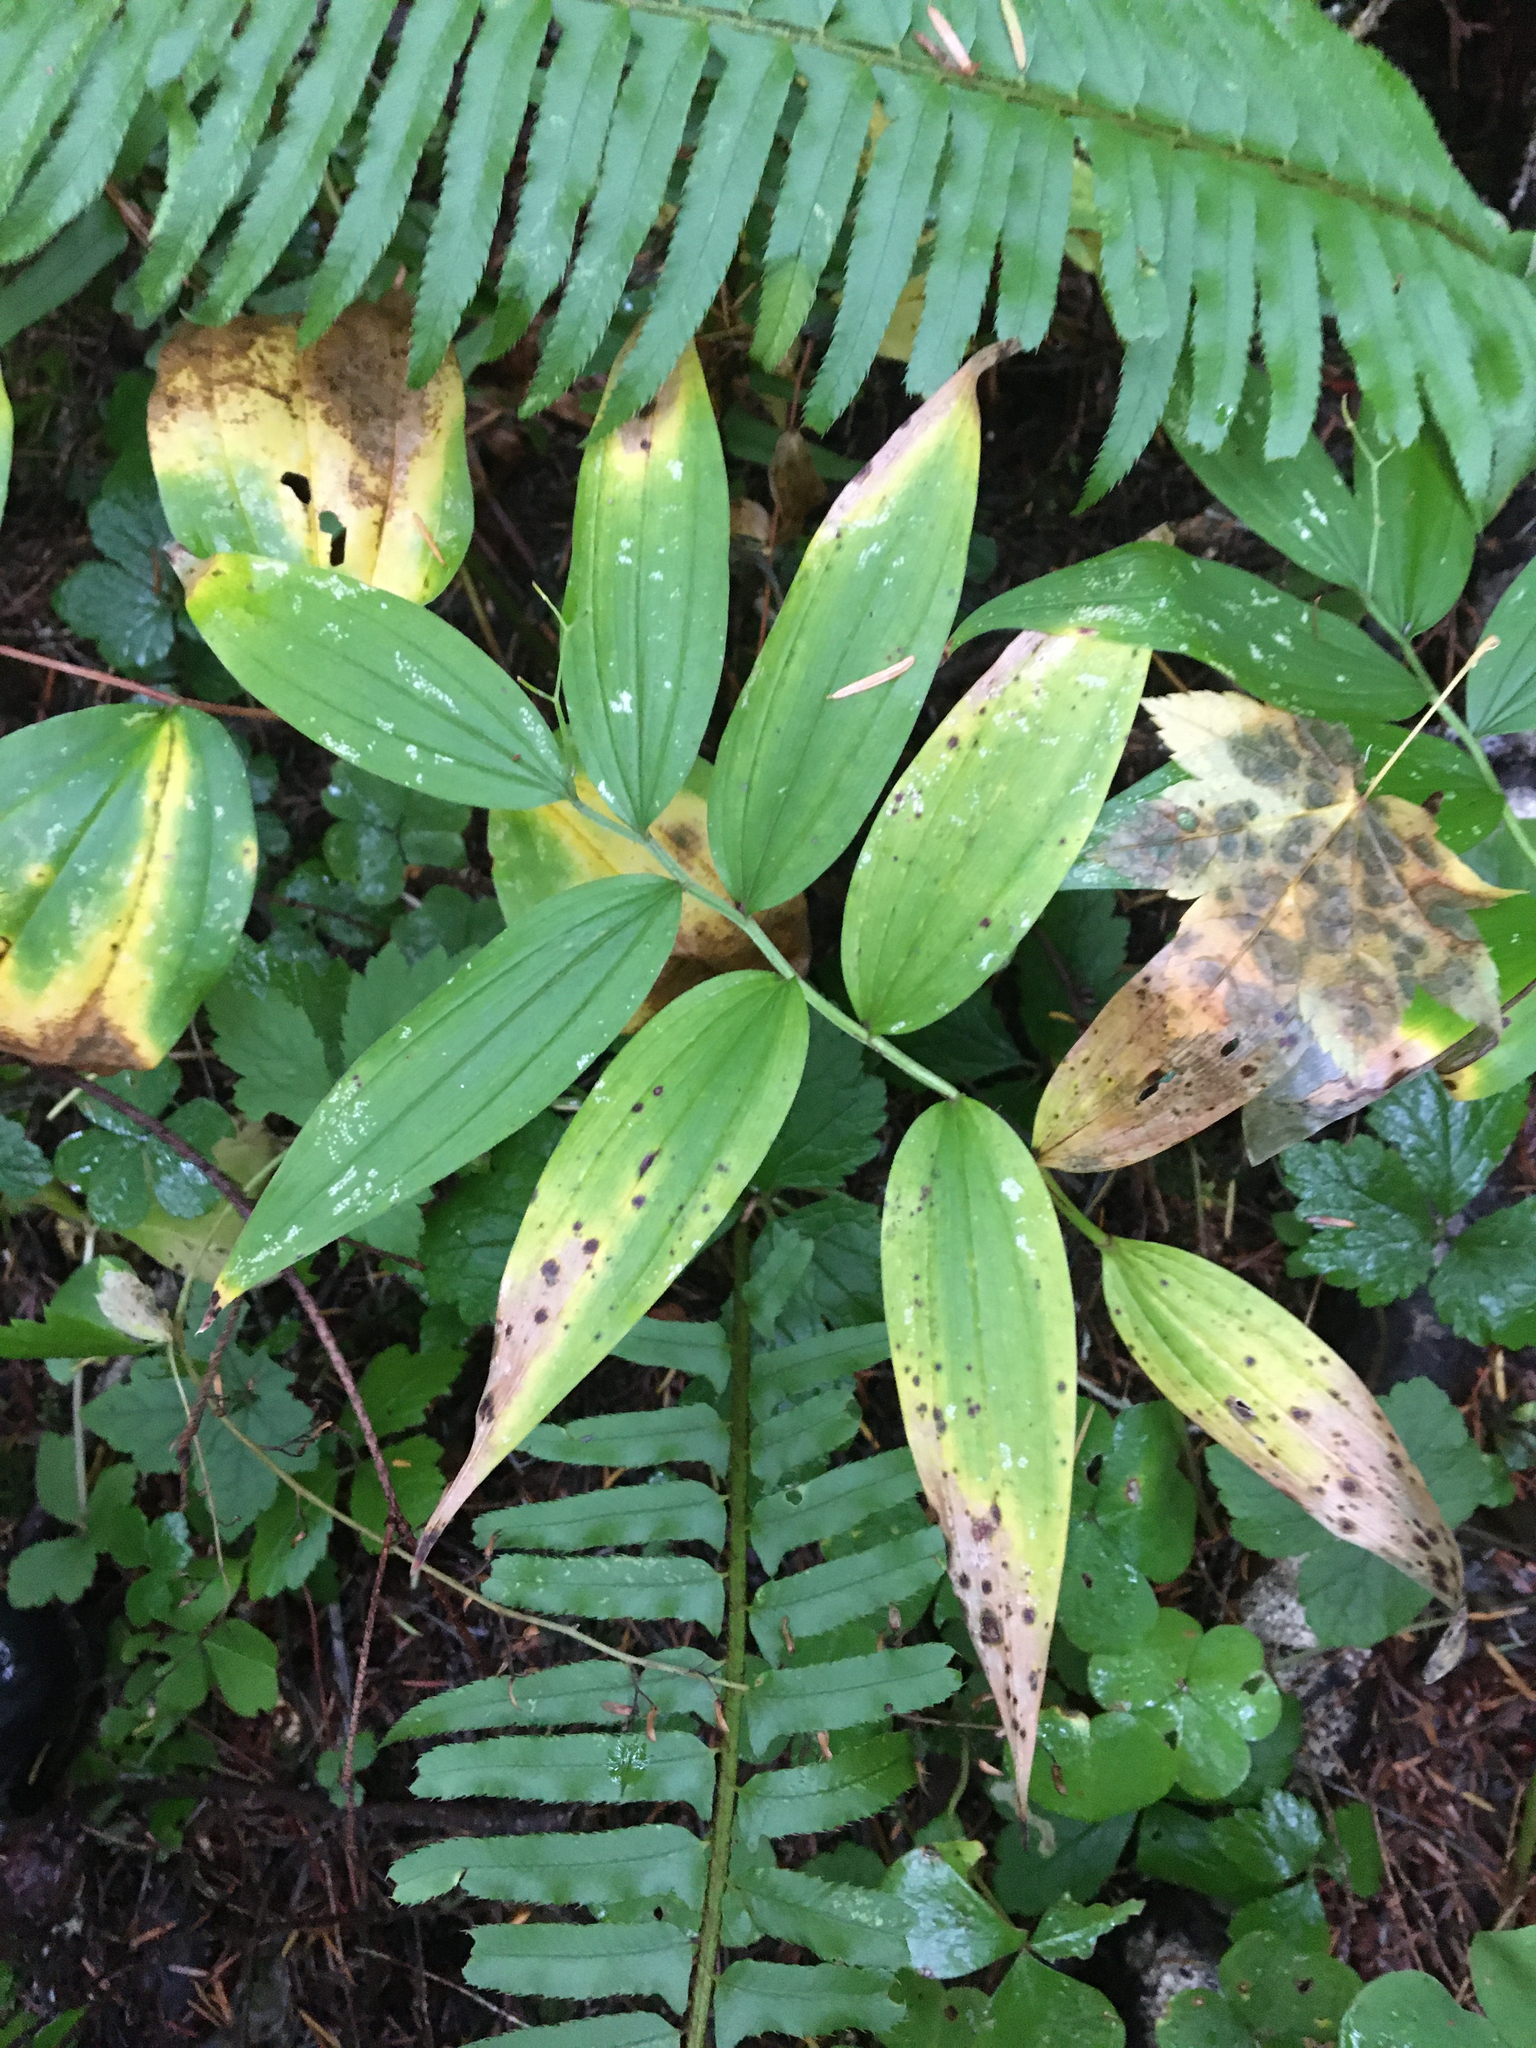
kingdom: Plantae
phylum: Tracheophyta
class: Liliopsida
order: Asparagales
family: Asparagaceae
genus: Maianthemum
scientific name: Maianthemum stellatum
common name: Little false solomon's seal
